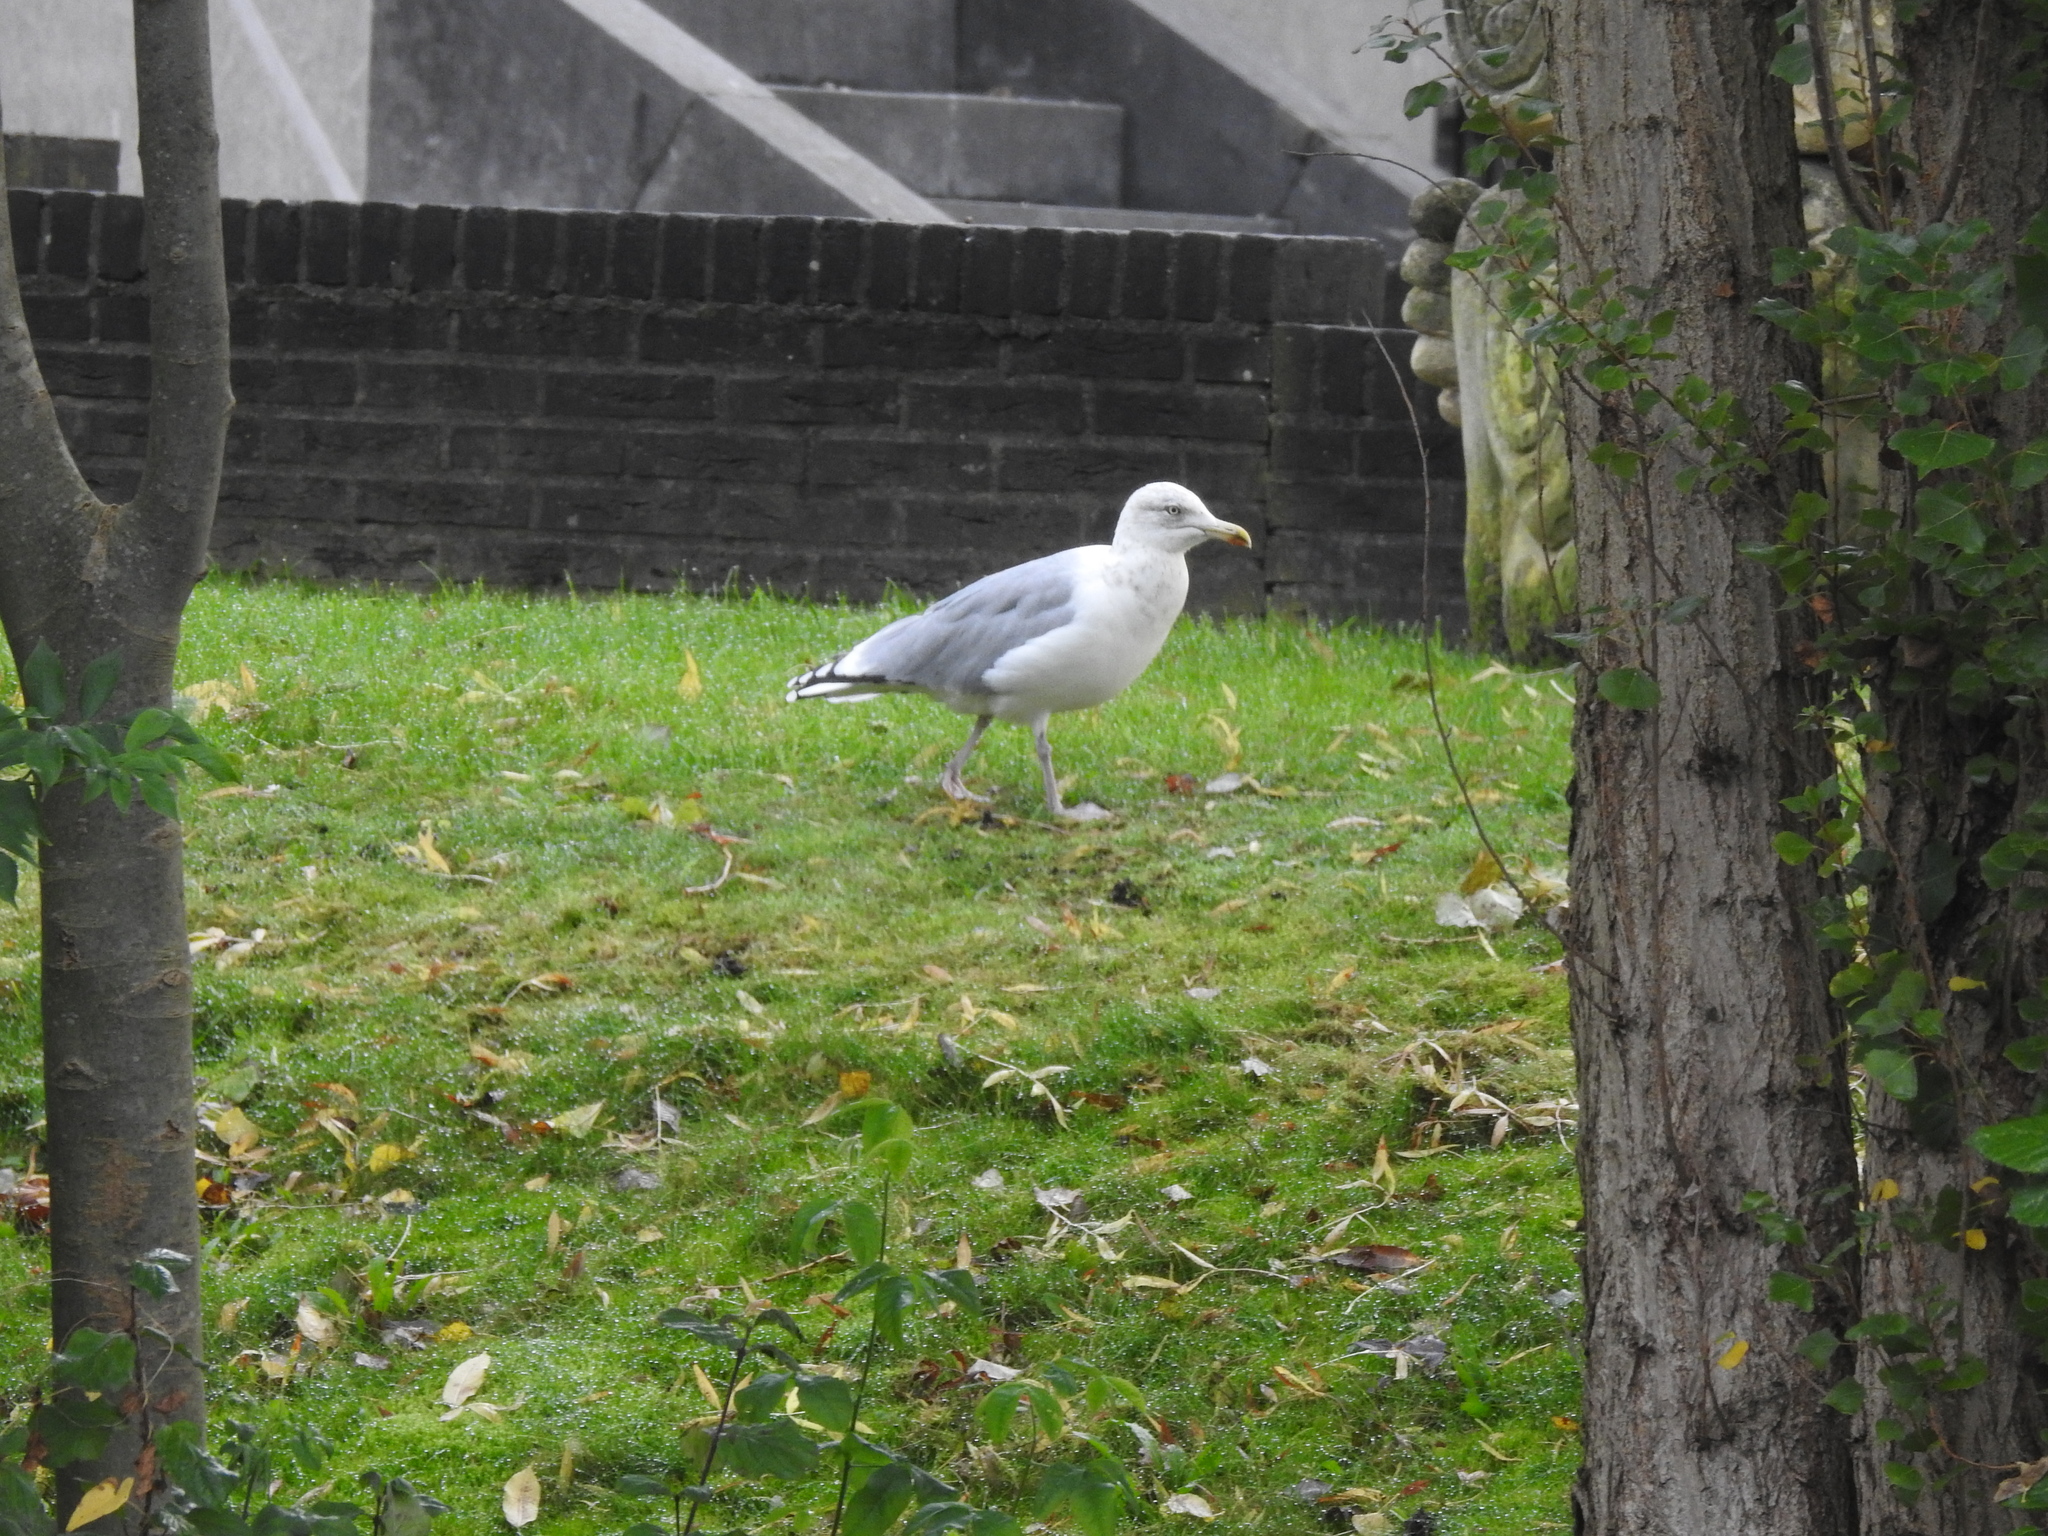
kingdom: Animalia
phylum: Chordata
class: Aves
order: Charadriiformes
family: Laridae
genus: Larus
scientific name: Larus argentatus
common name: Herring gull
